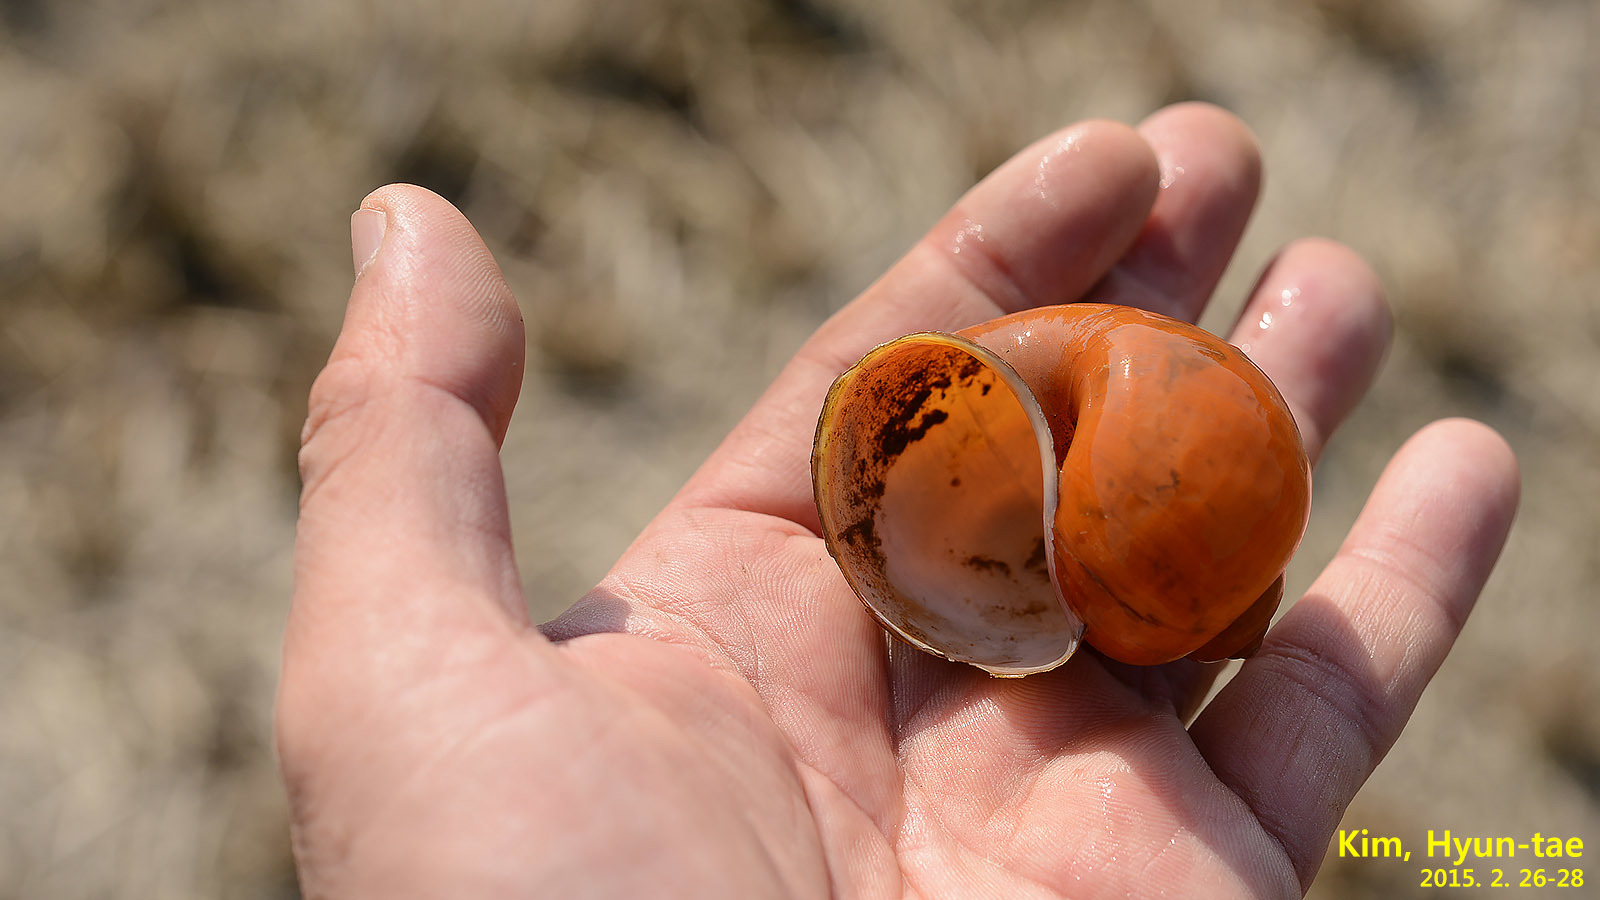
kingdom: Animalia
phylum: Mollusca
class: Gastropoda
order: Architaenioglossa
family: Ampullariidae
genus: Pomacea
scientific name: Pomacea canaliculata
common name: Channeled applesnail
